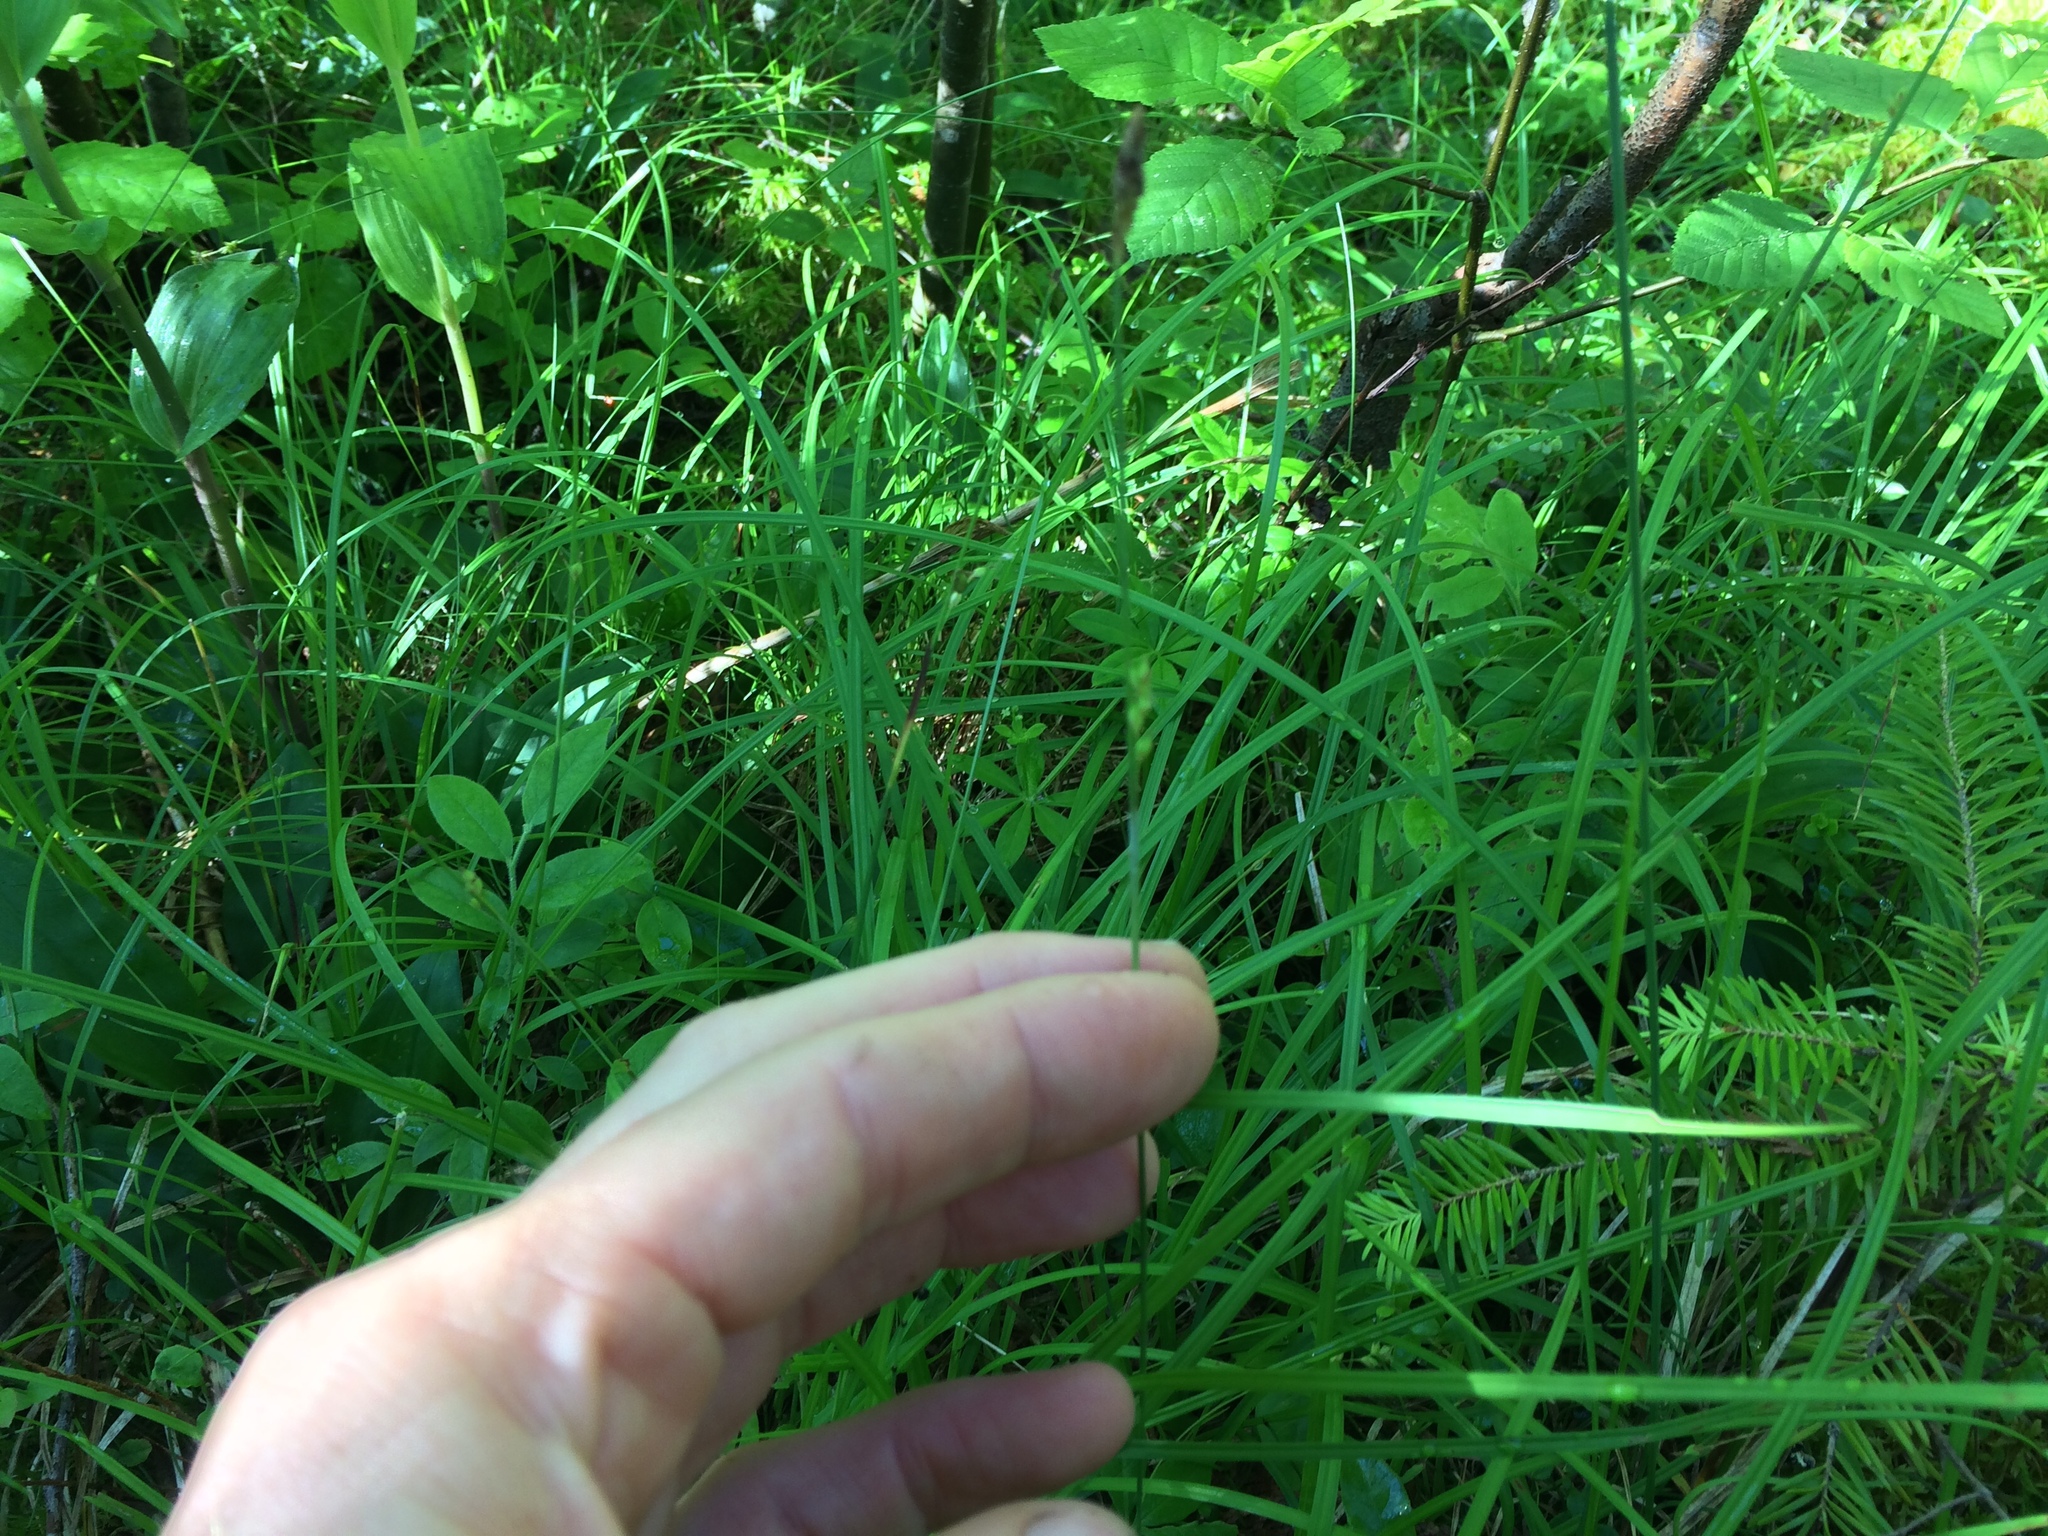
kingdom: Plantae
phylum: Tracheophyta
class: Liliopsida
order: Poales
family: Cyperaceae
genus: Carex
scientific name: Carex vaginata
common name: Sheathed sedge
